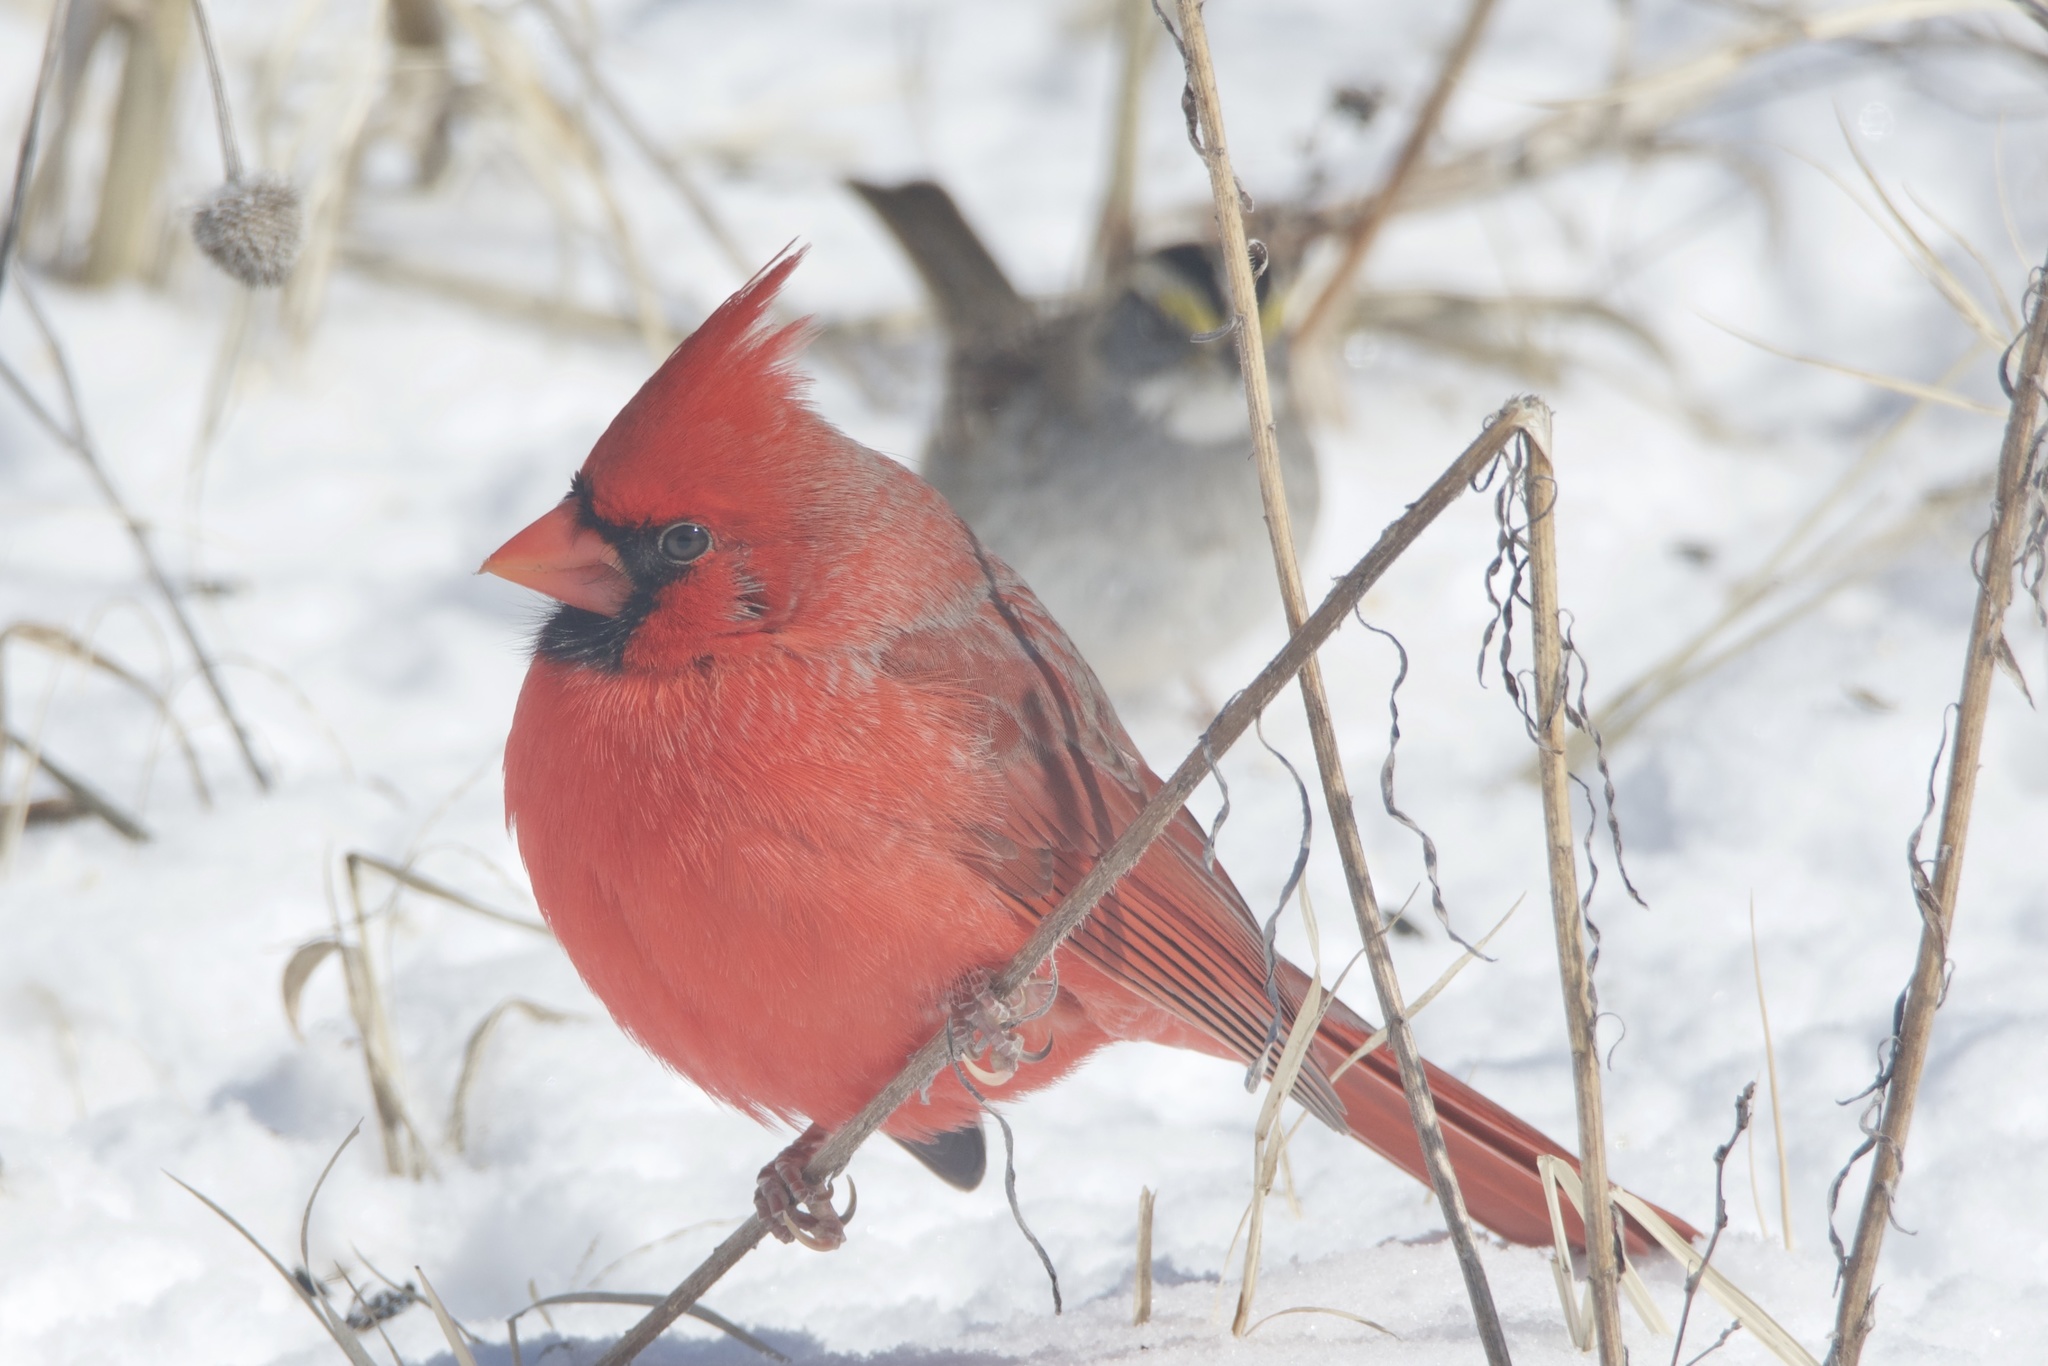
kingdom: Animalia
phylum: Chordata
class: Aves
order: Passeriformes
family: Cardinalidae
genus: Cardinalis
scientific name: Cardinalis cardinalis
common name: Northern cardinal
